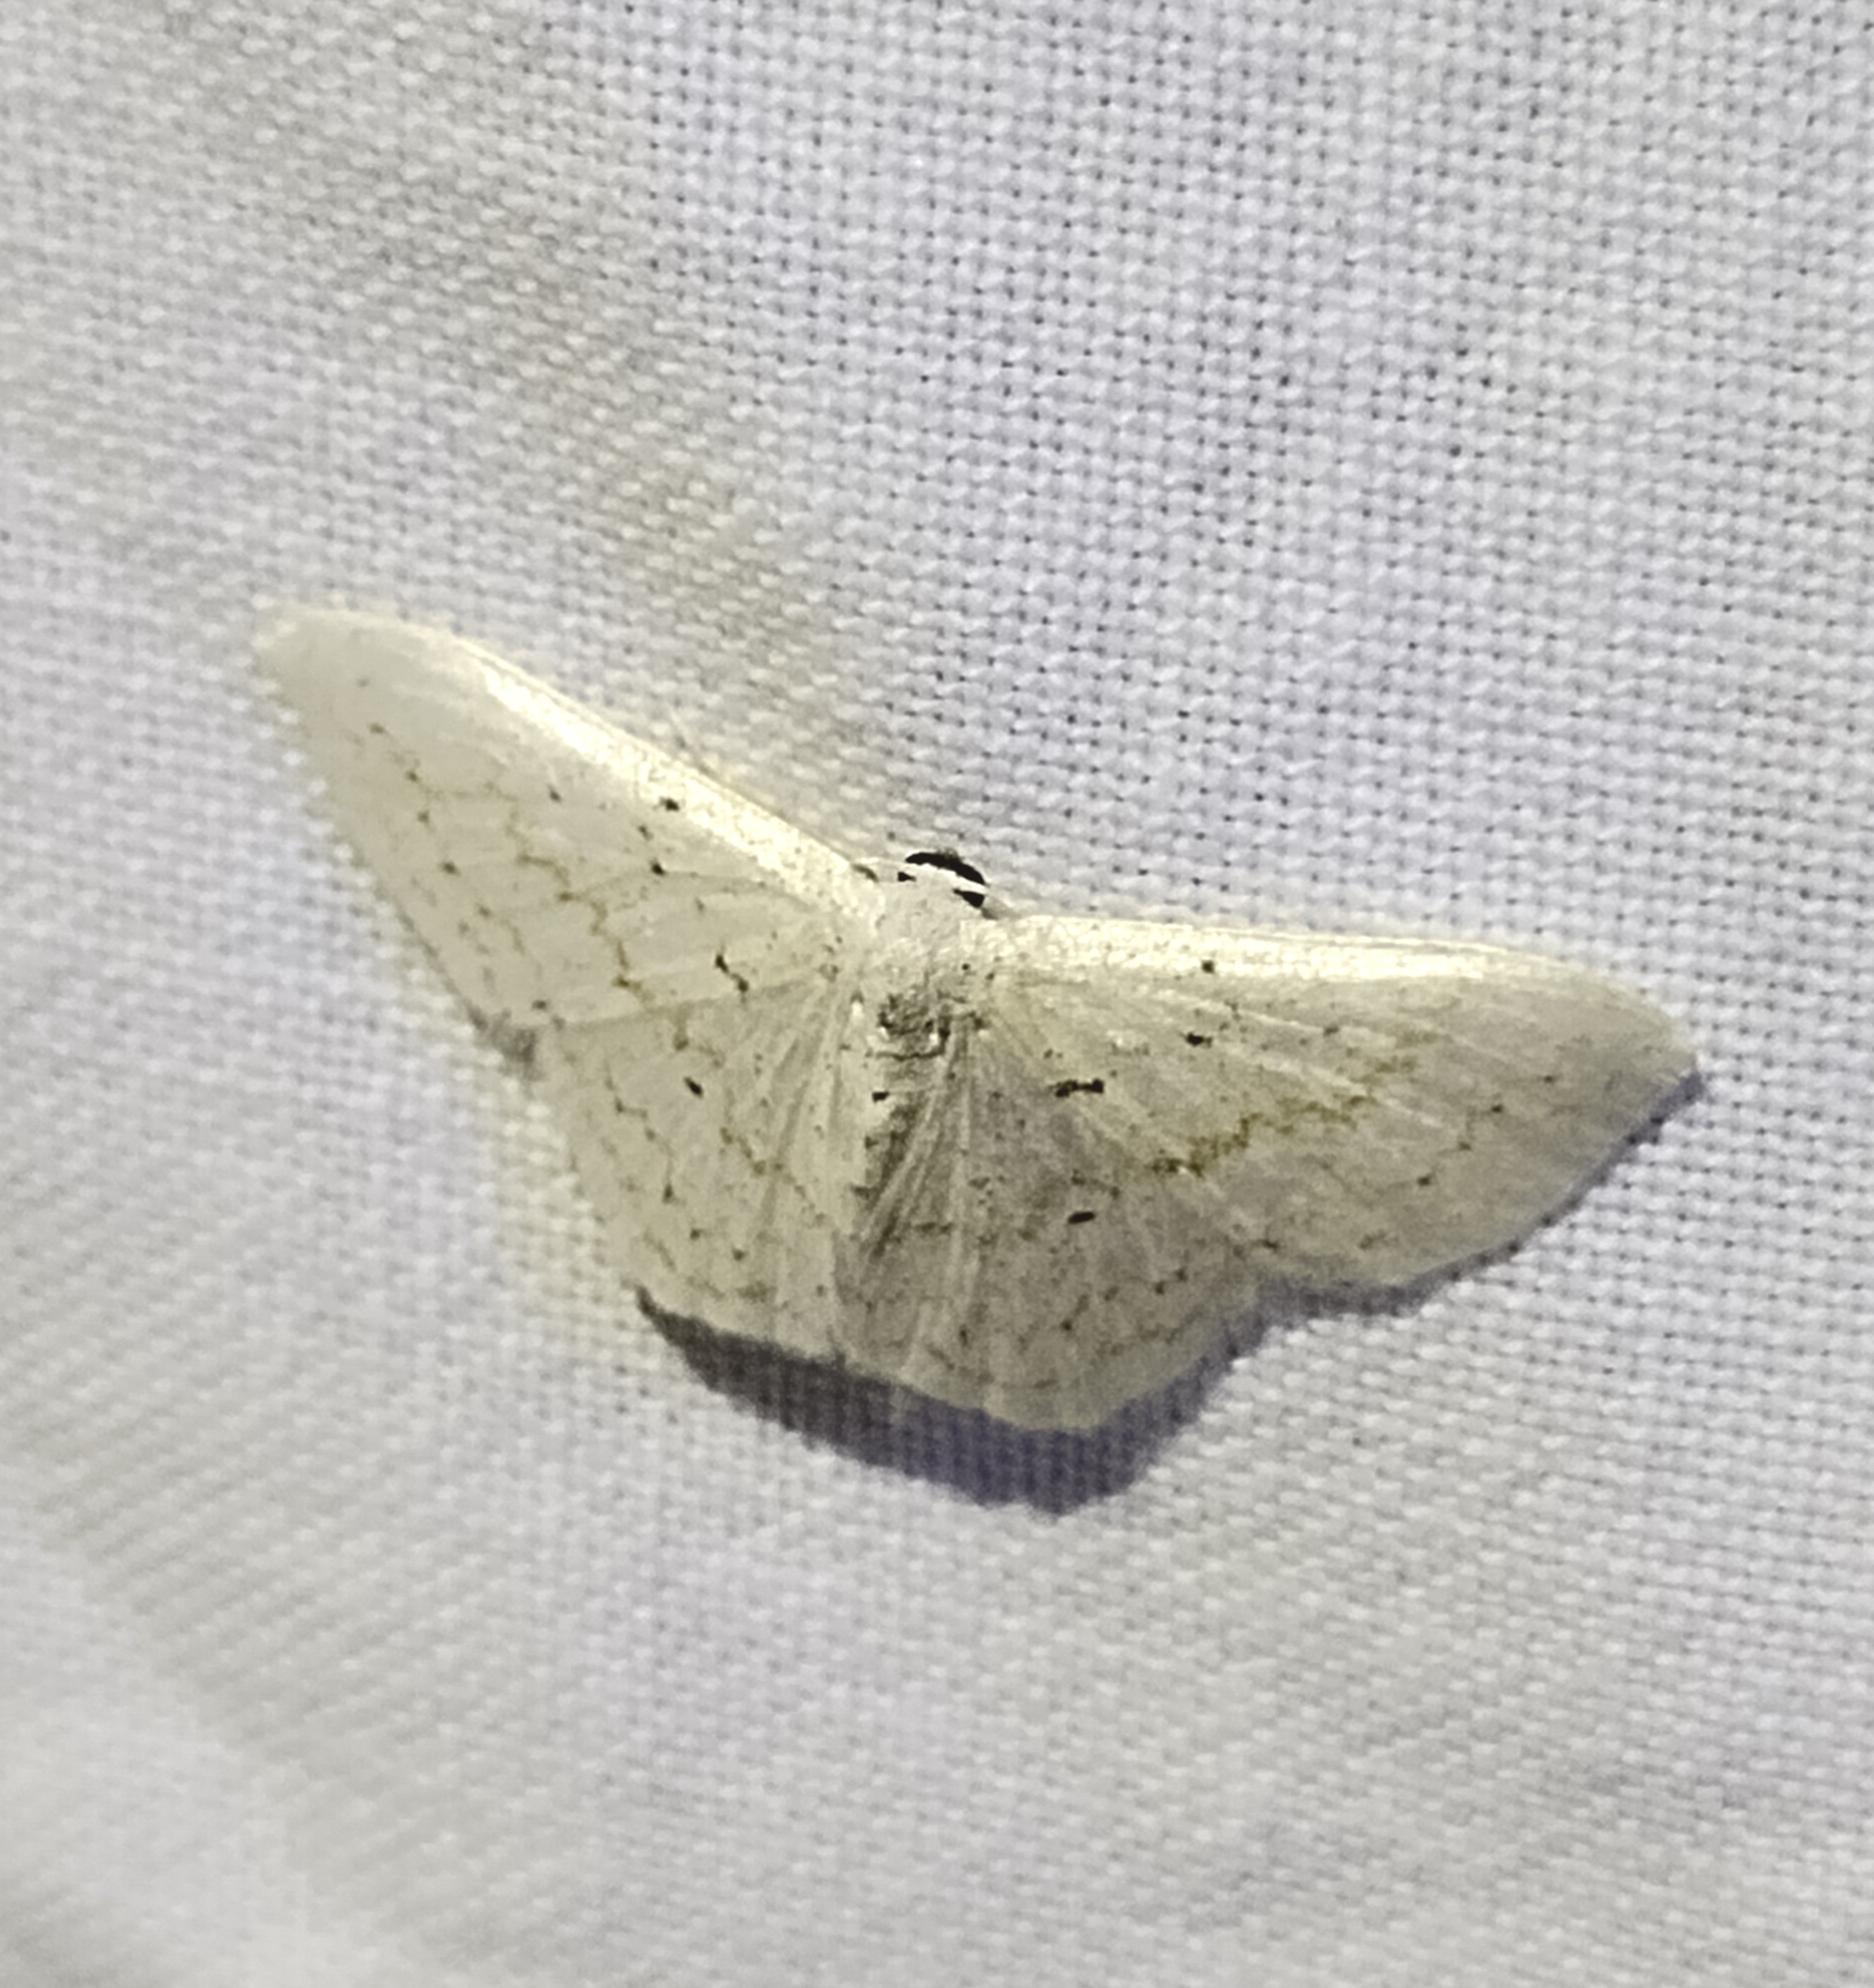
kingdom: Animalia
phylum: Arthropoda
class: Insecta
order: Lepidoptera
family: Geometridae
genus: Idaea
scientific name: Idaea tacturata
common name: Dot-lined wave
